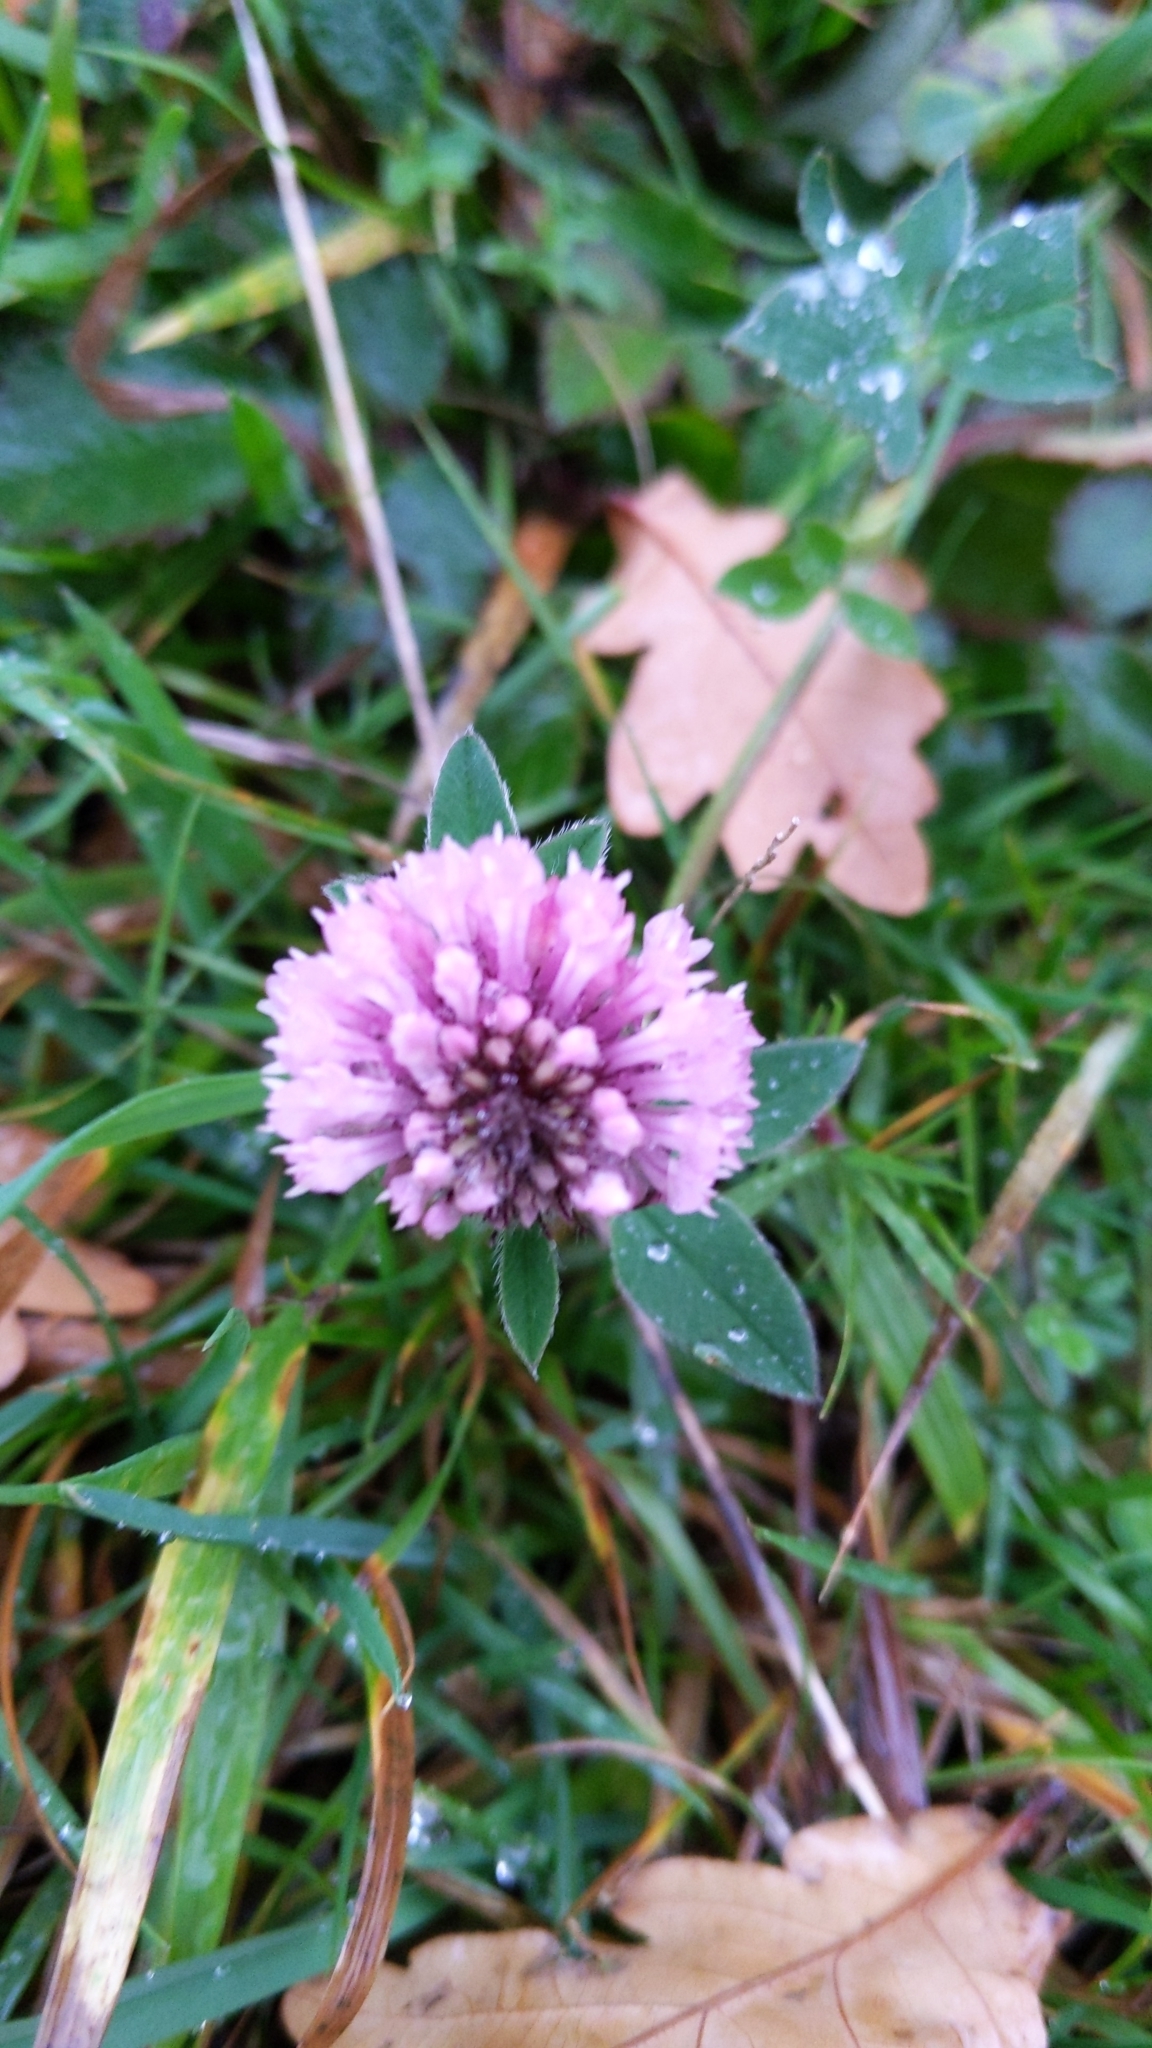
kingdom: Plantae
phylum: Tracheophyta
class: Magnoliopsida
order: Fabales
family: Fabaceae
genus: Trifolium
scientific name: Trifolium pratense
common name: Red clover
